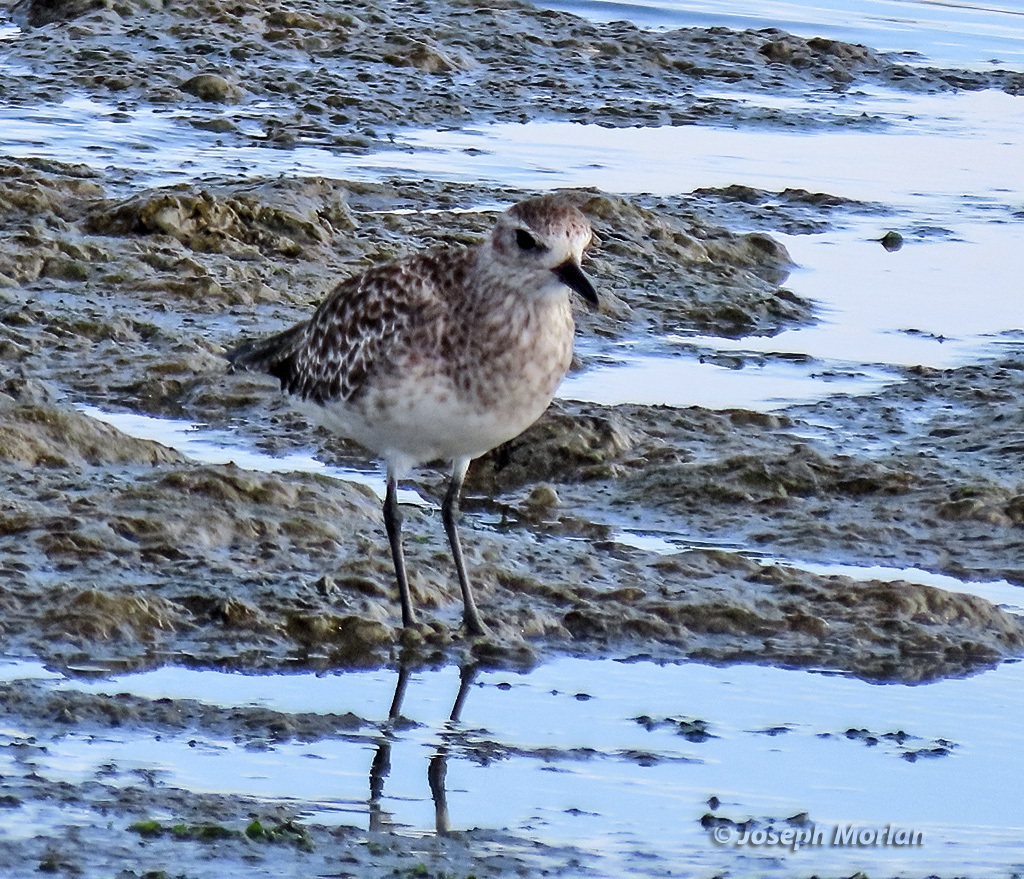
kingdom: Animalia
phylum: Chordata
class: Aves
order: Charadriiformes
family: Charadriidae
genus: Pluvialis
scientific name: Pluvialis squatarola
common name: Grey plover
